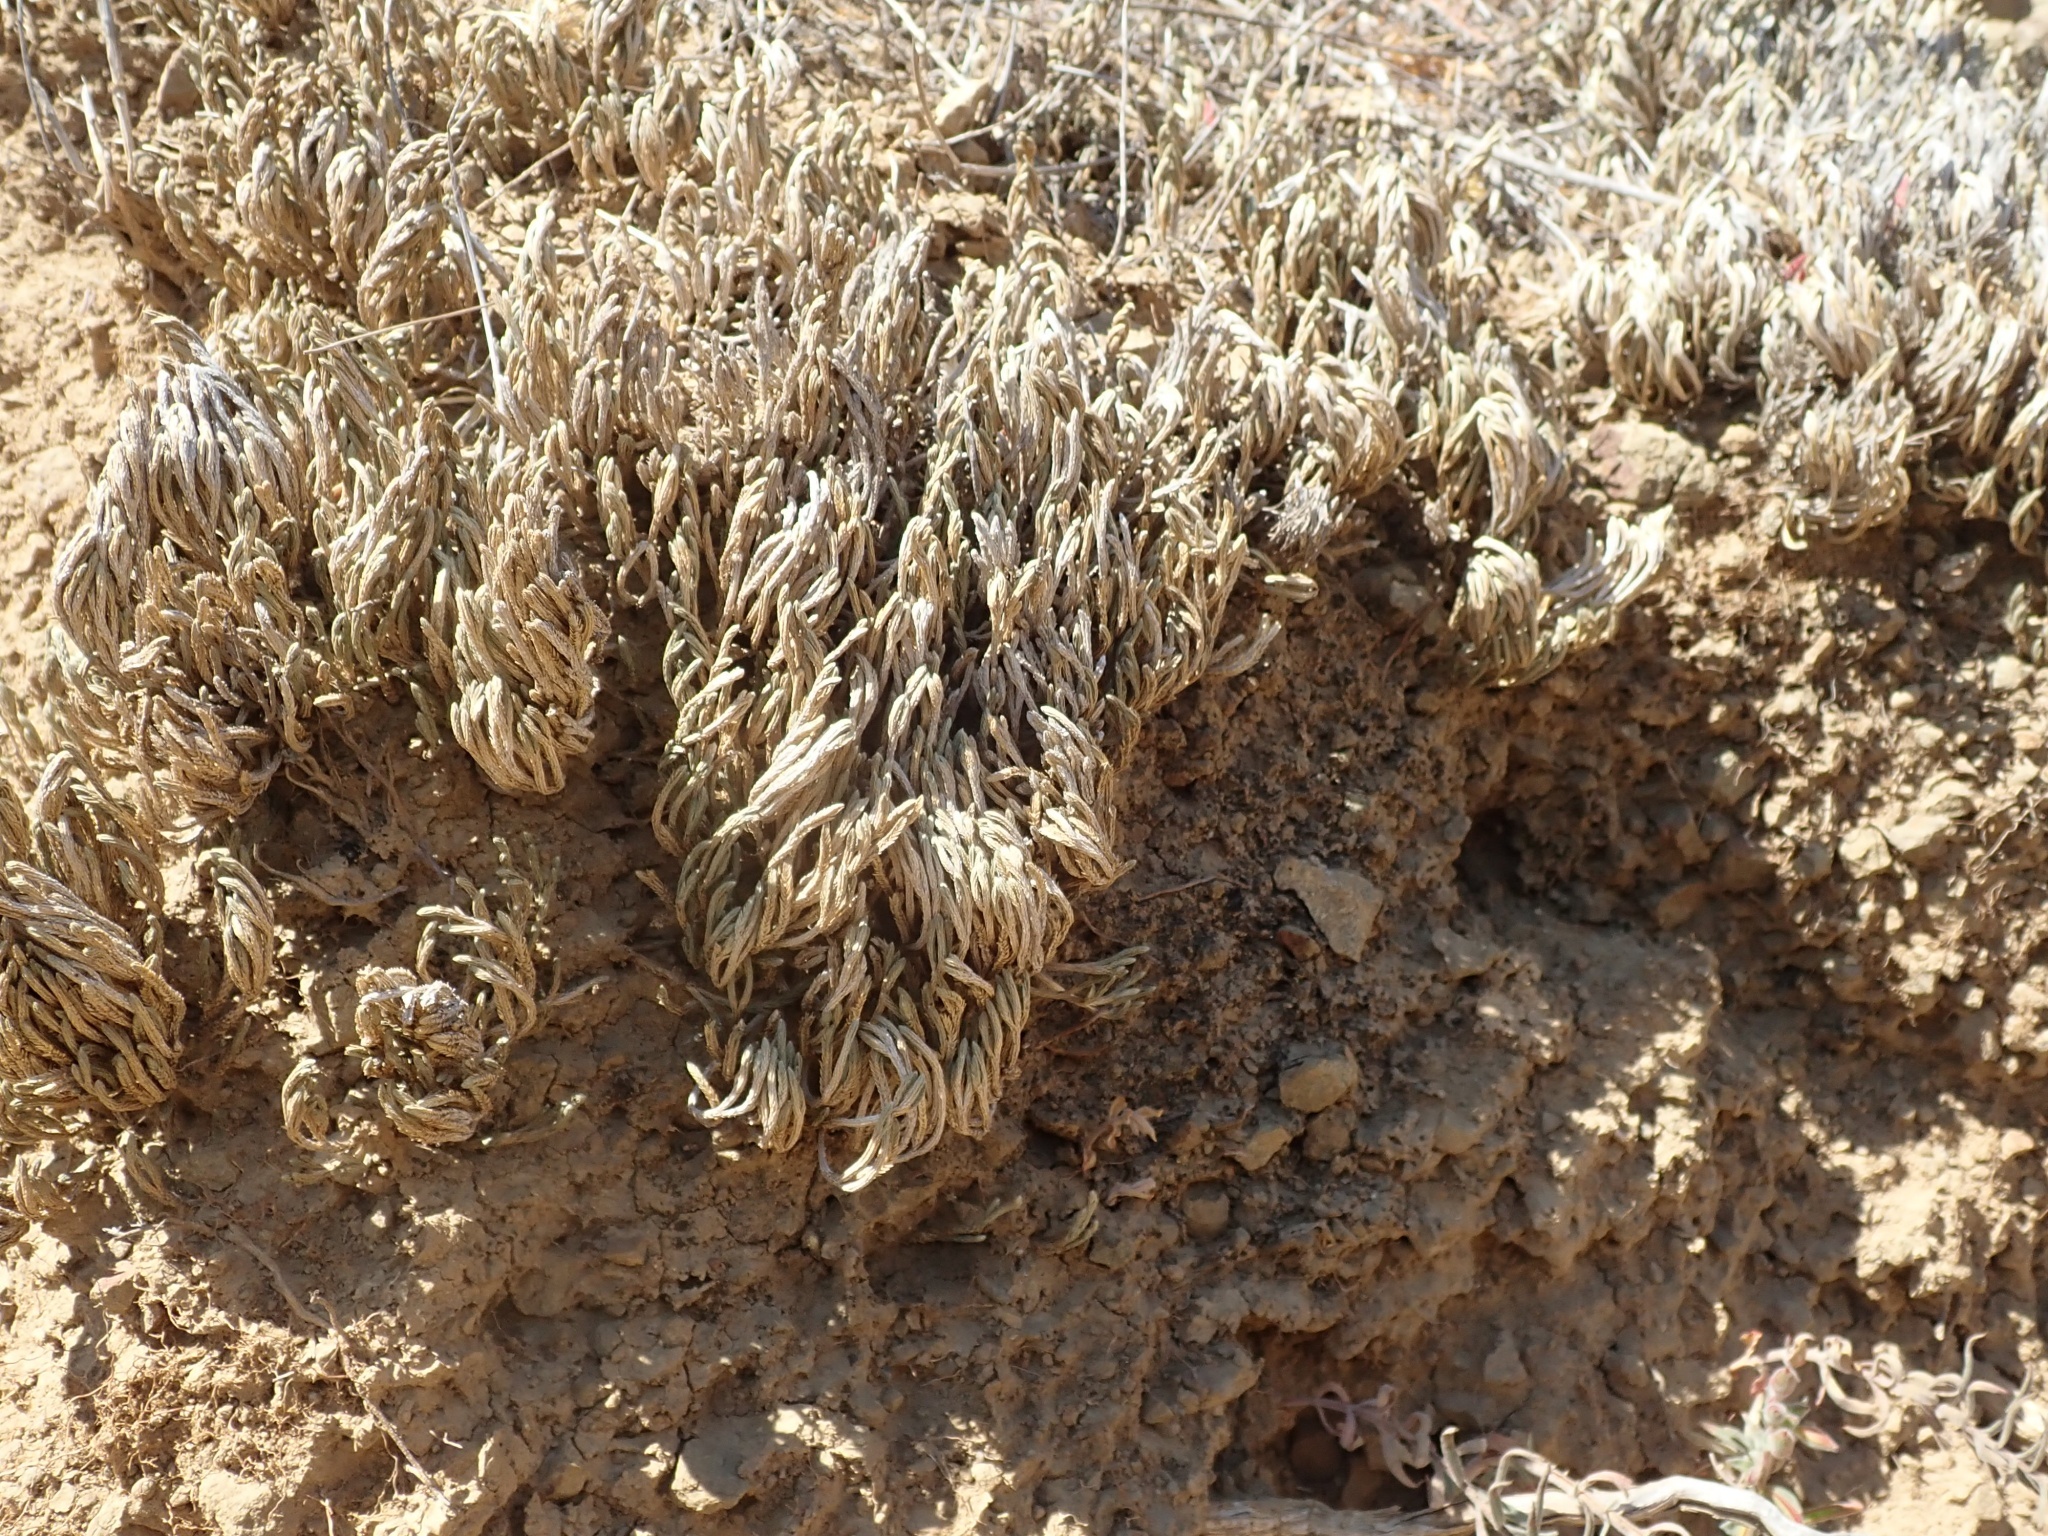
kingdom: Plantae
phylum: Tracheophyta
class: Lycopodiopsida
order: Selaginellales
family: Selaginellaceae
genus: Selaginella
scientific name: Selaginella bigelovii
